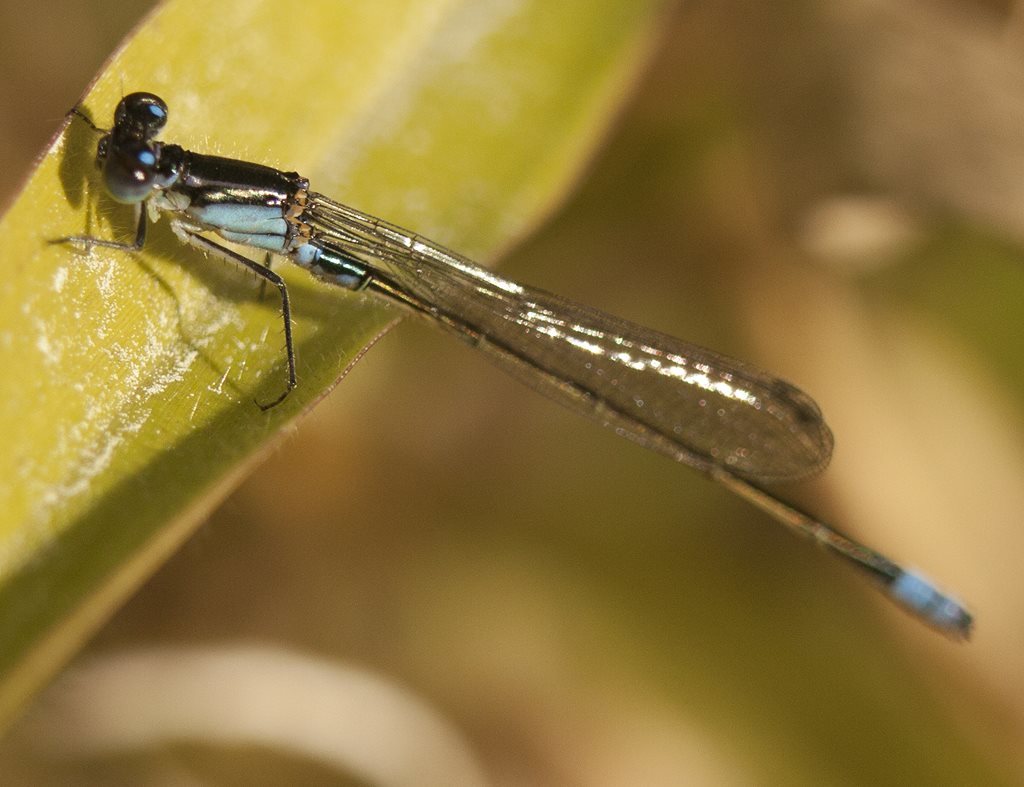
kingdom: Animalia
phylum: Arthropoda
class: Insecta
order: Odonata
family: Coenagrionidae
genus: Ischnura
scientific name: Ischnura heterosticta
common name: Common bluetail
